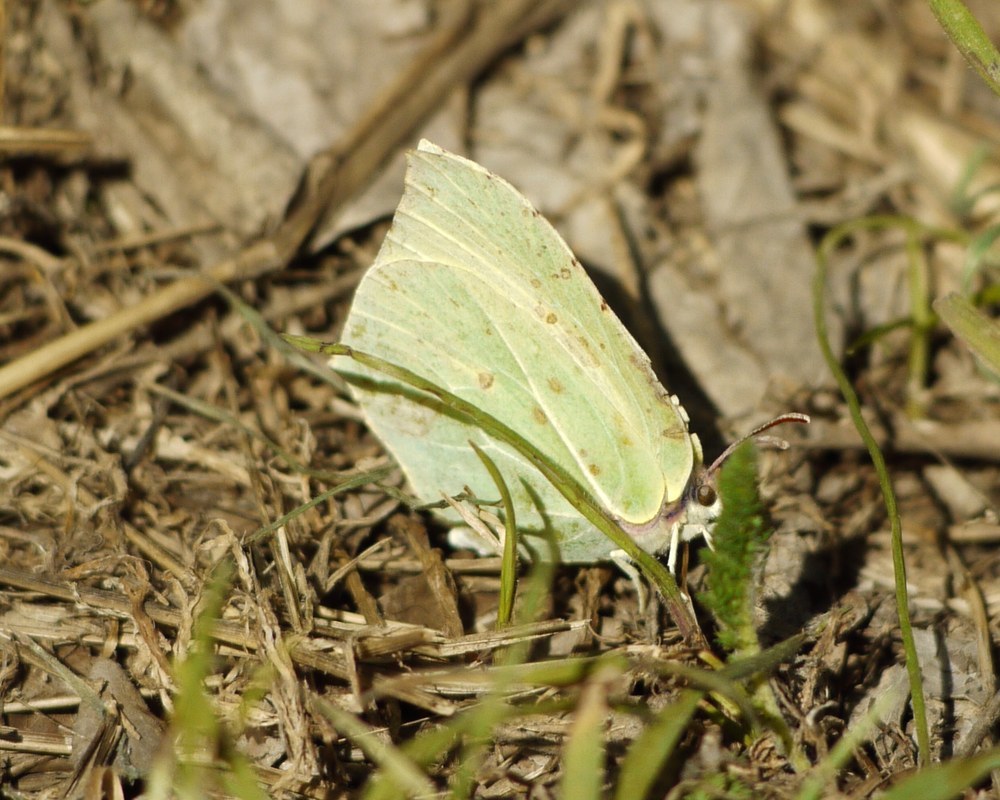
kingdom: Animalia
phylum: Arthropoda
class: Insecta
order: Lepidoptera
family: Pieridae
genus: Gonepteryx
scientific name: Gonepteryx rhamni
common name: Brimstone
